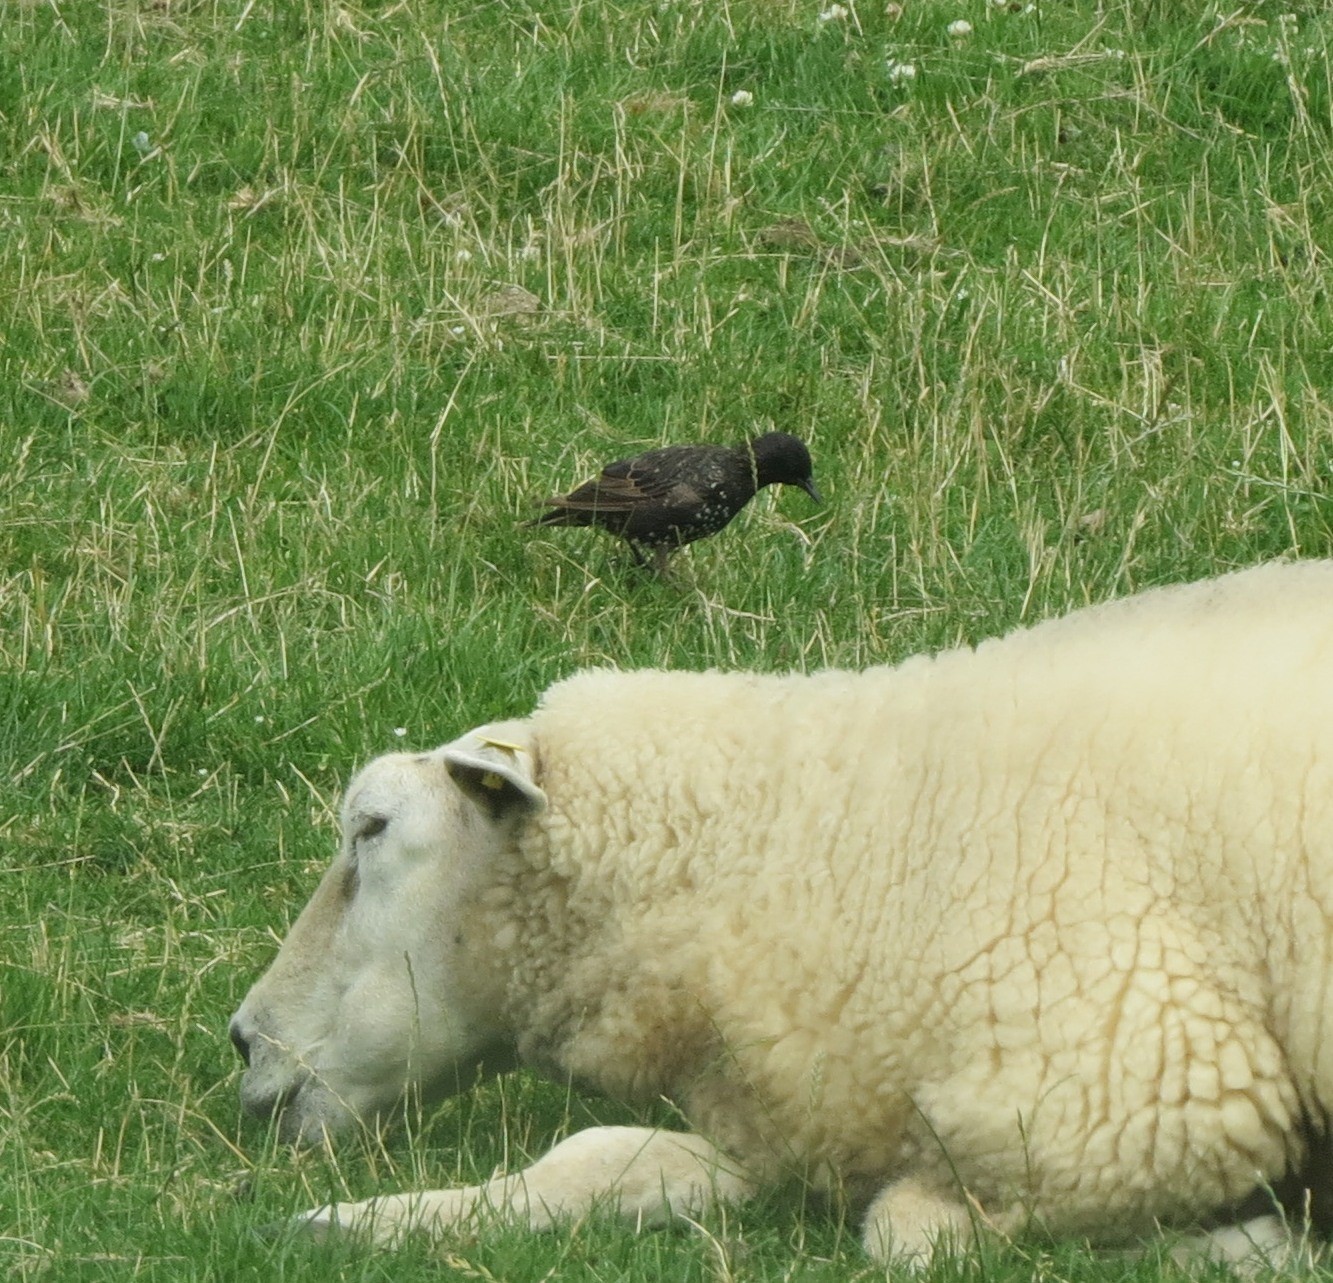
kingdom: Animalia
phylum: Chordata
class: Aves
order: Passeriformes
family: Sturnidae
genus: Sturnus
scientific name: Sturnus vulgaris
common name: Common starling
